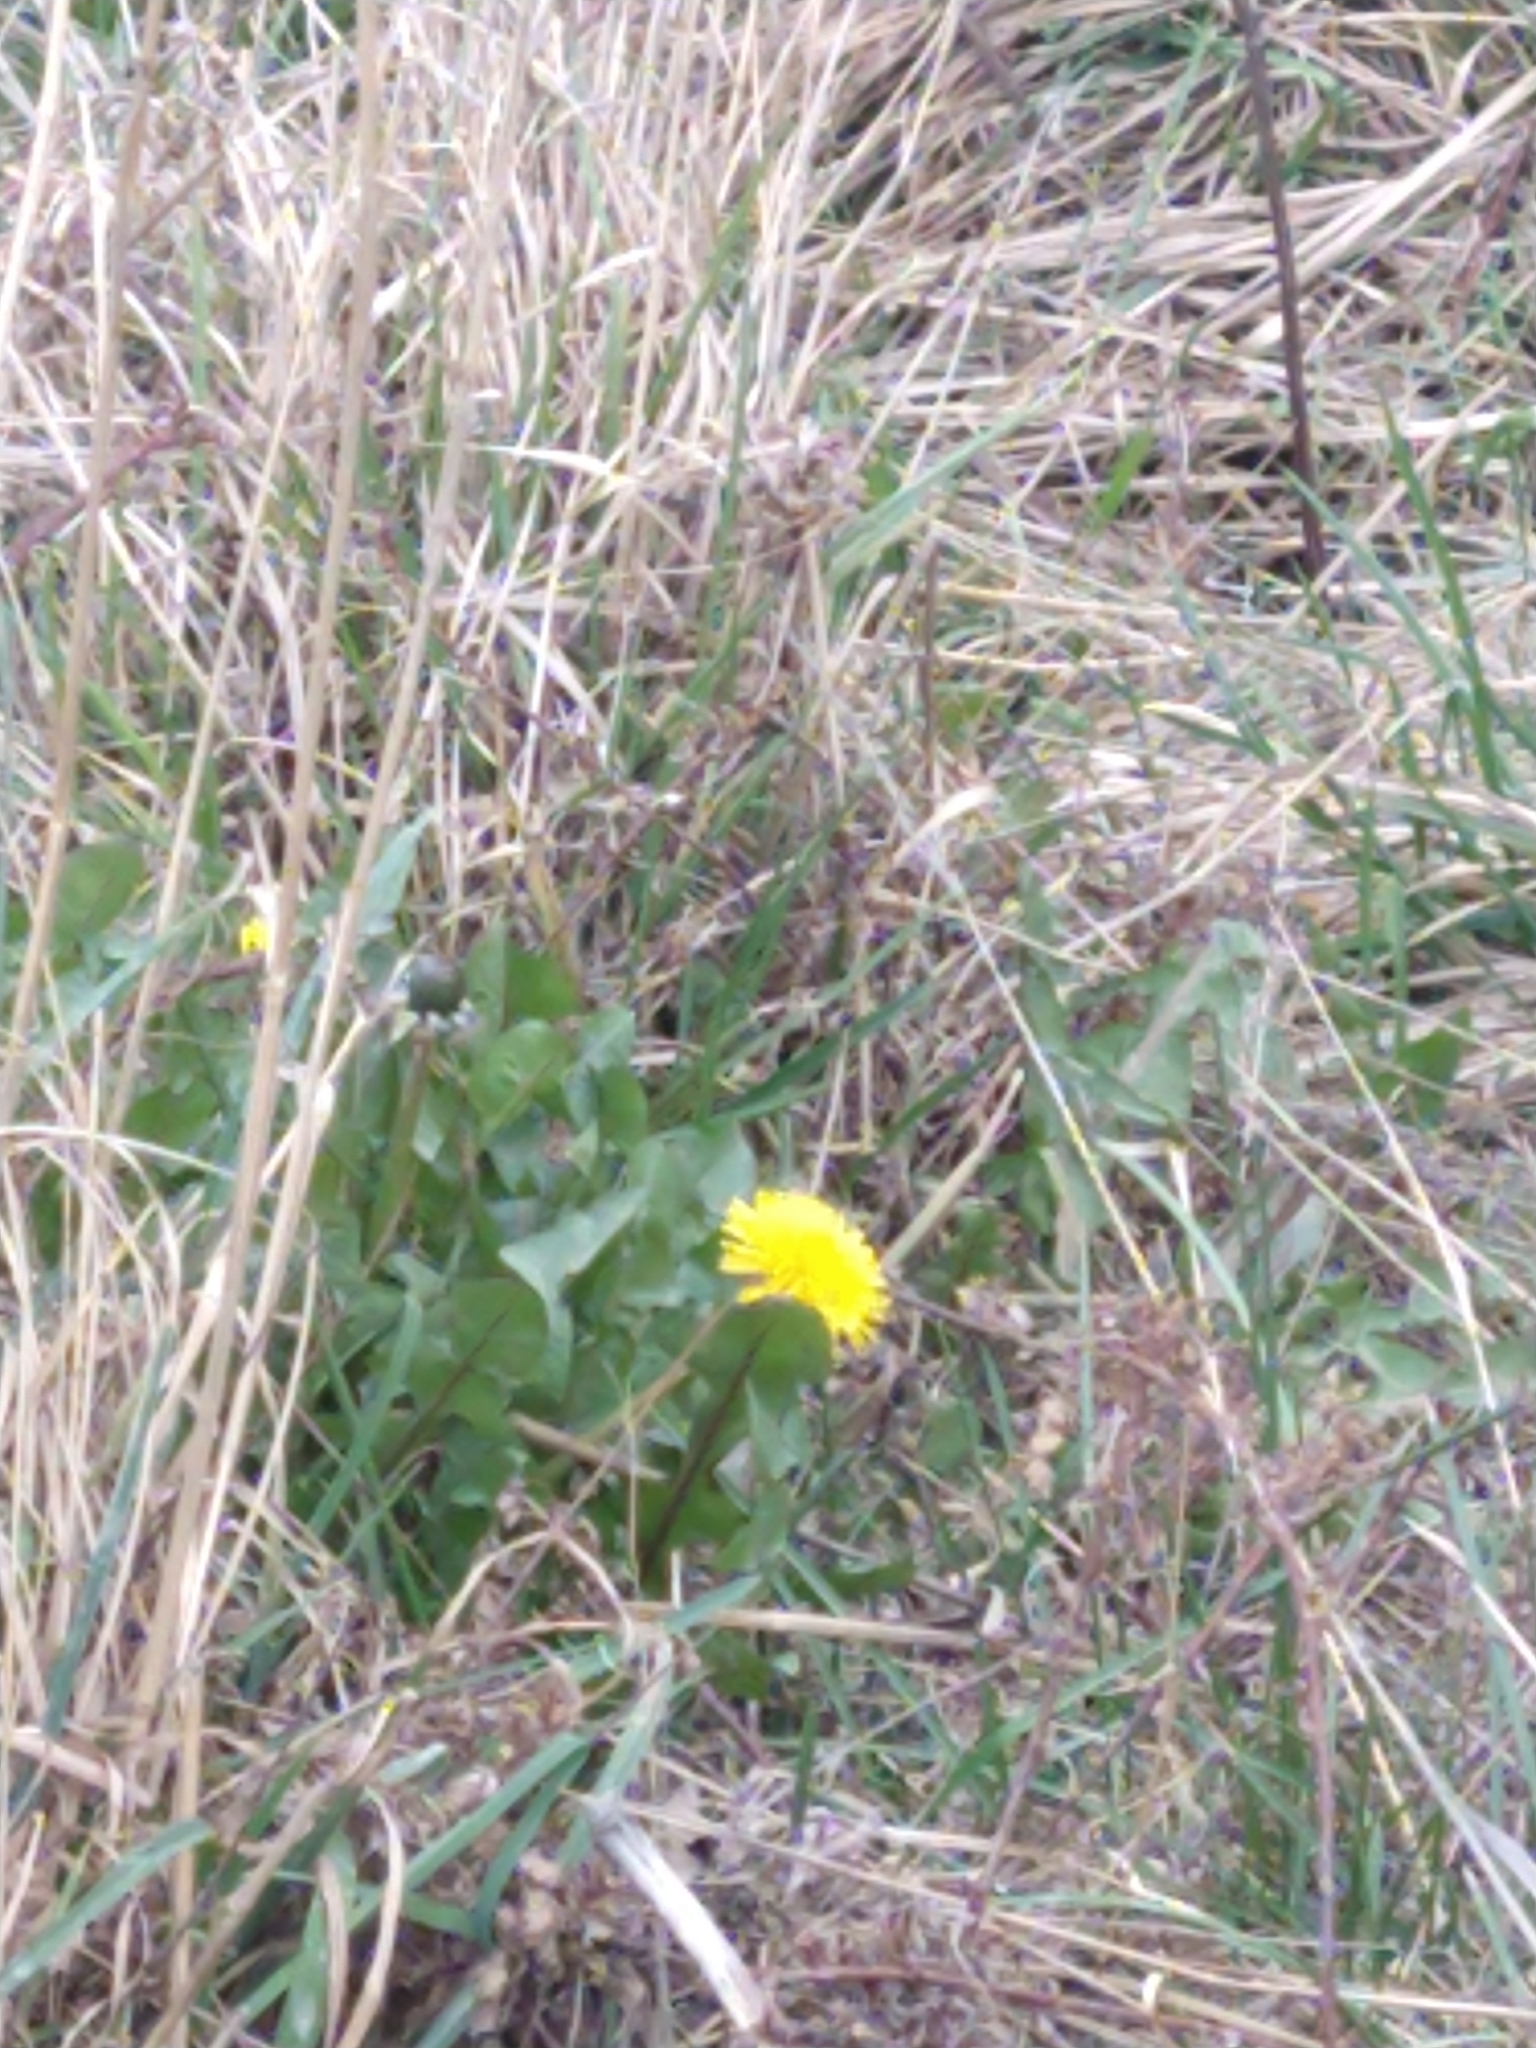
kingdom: Plantae
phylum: Tracheophyta
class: Magnoliopsida
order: Asterales
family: Asteraceae
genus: Taraxacum
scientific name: Taraxacum officinale
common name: Common dandelion
